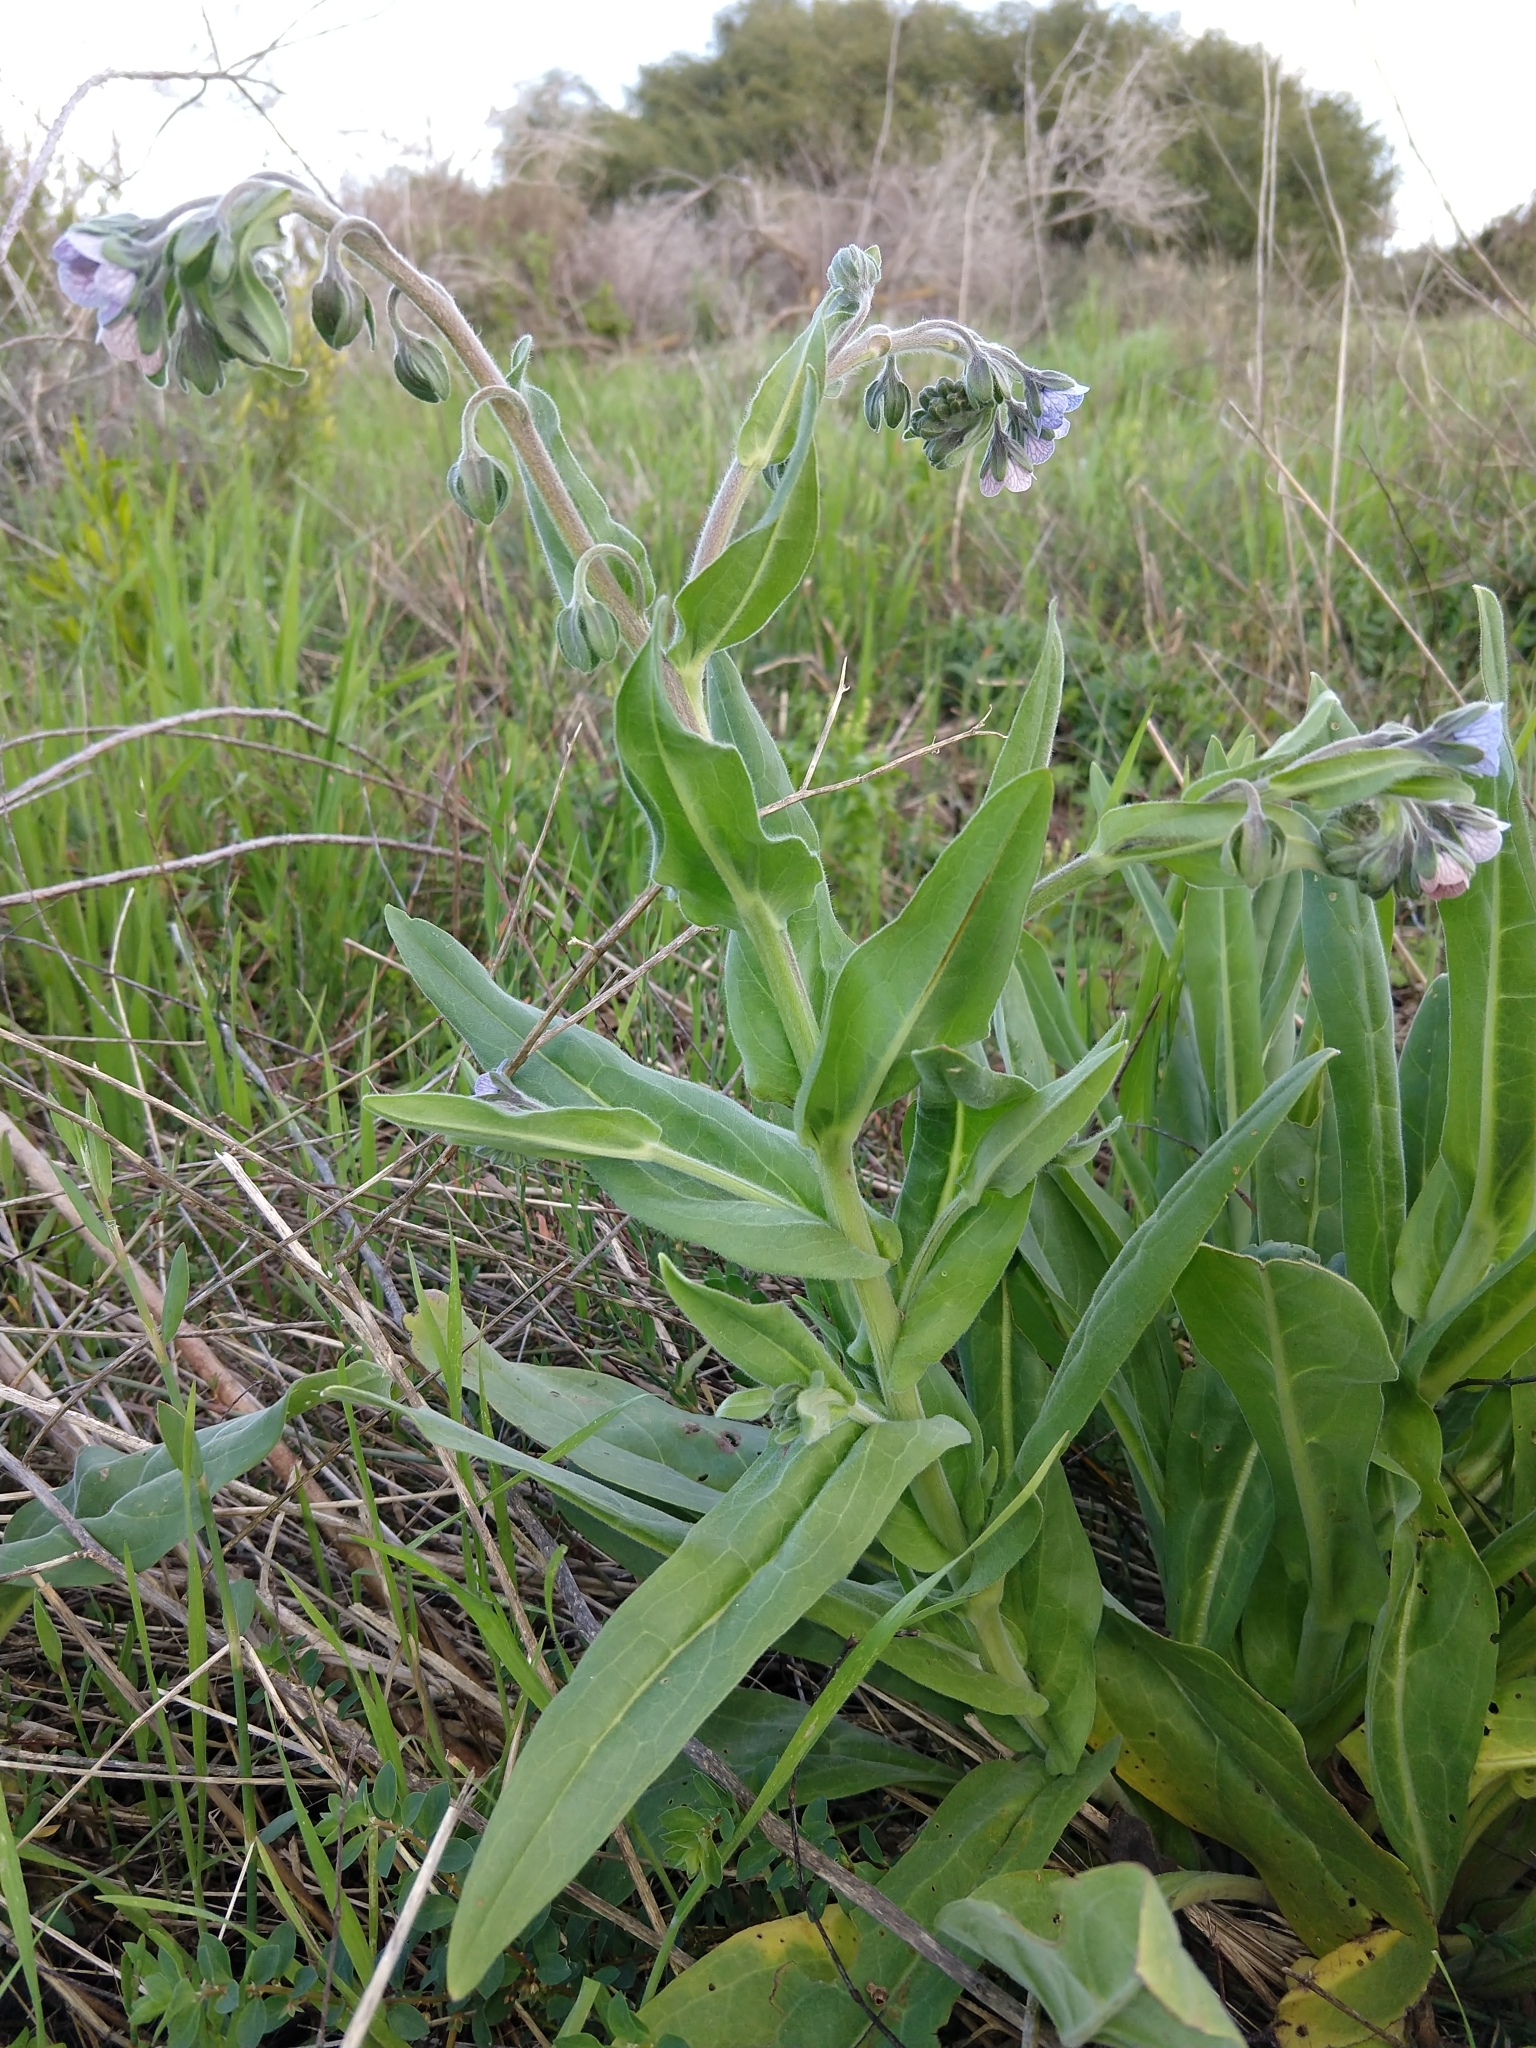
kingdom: Plantae
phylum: Tracheophyta
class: Magnoliopsida
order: Boraginales
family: Boraginaceae
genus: Cynoglossum
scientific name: Cynoglossum creticum
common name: Blue hound's tongue
